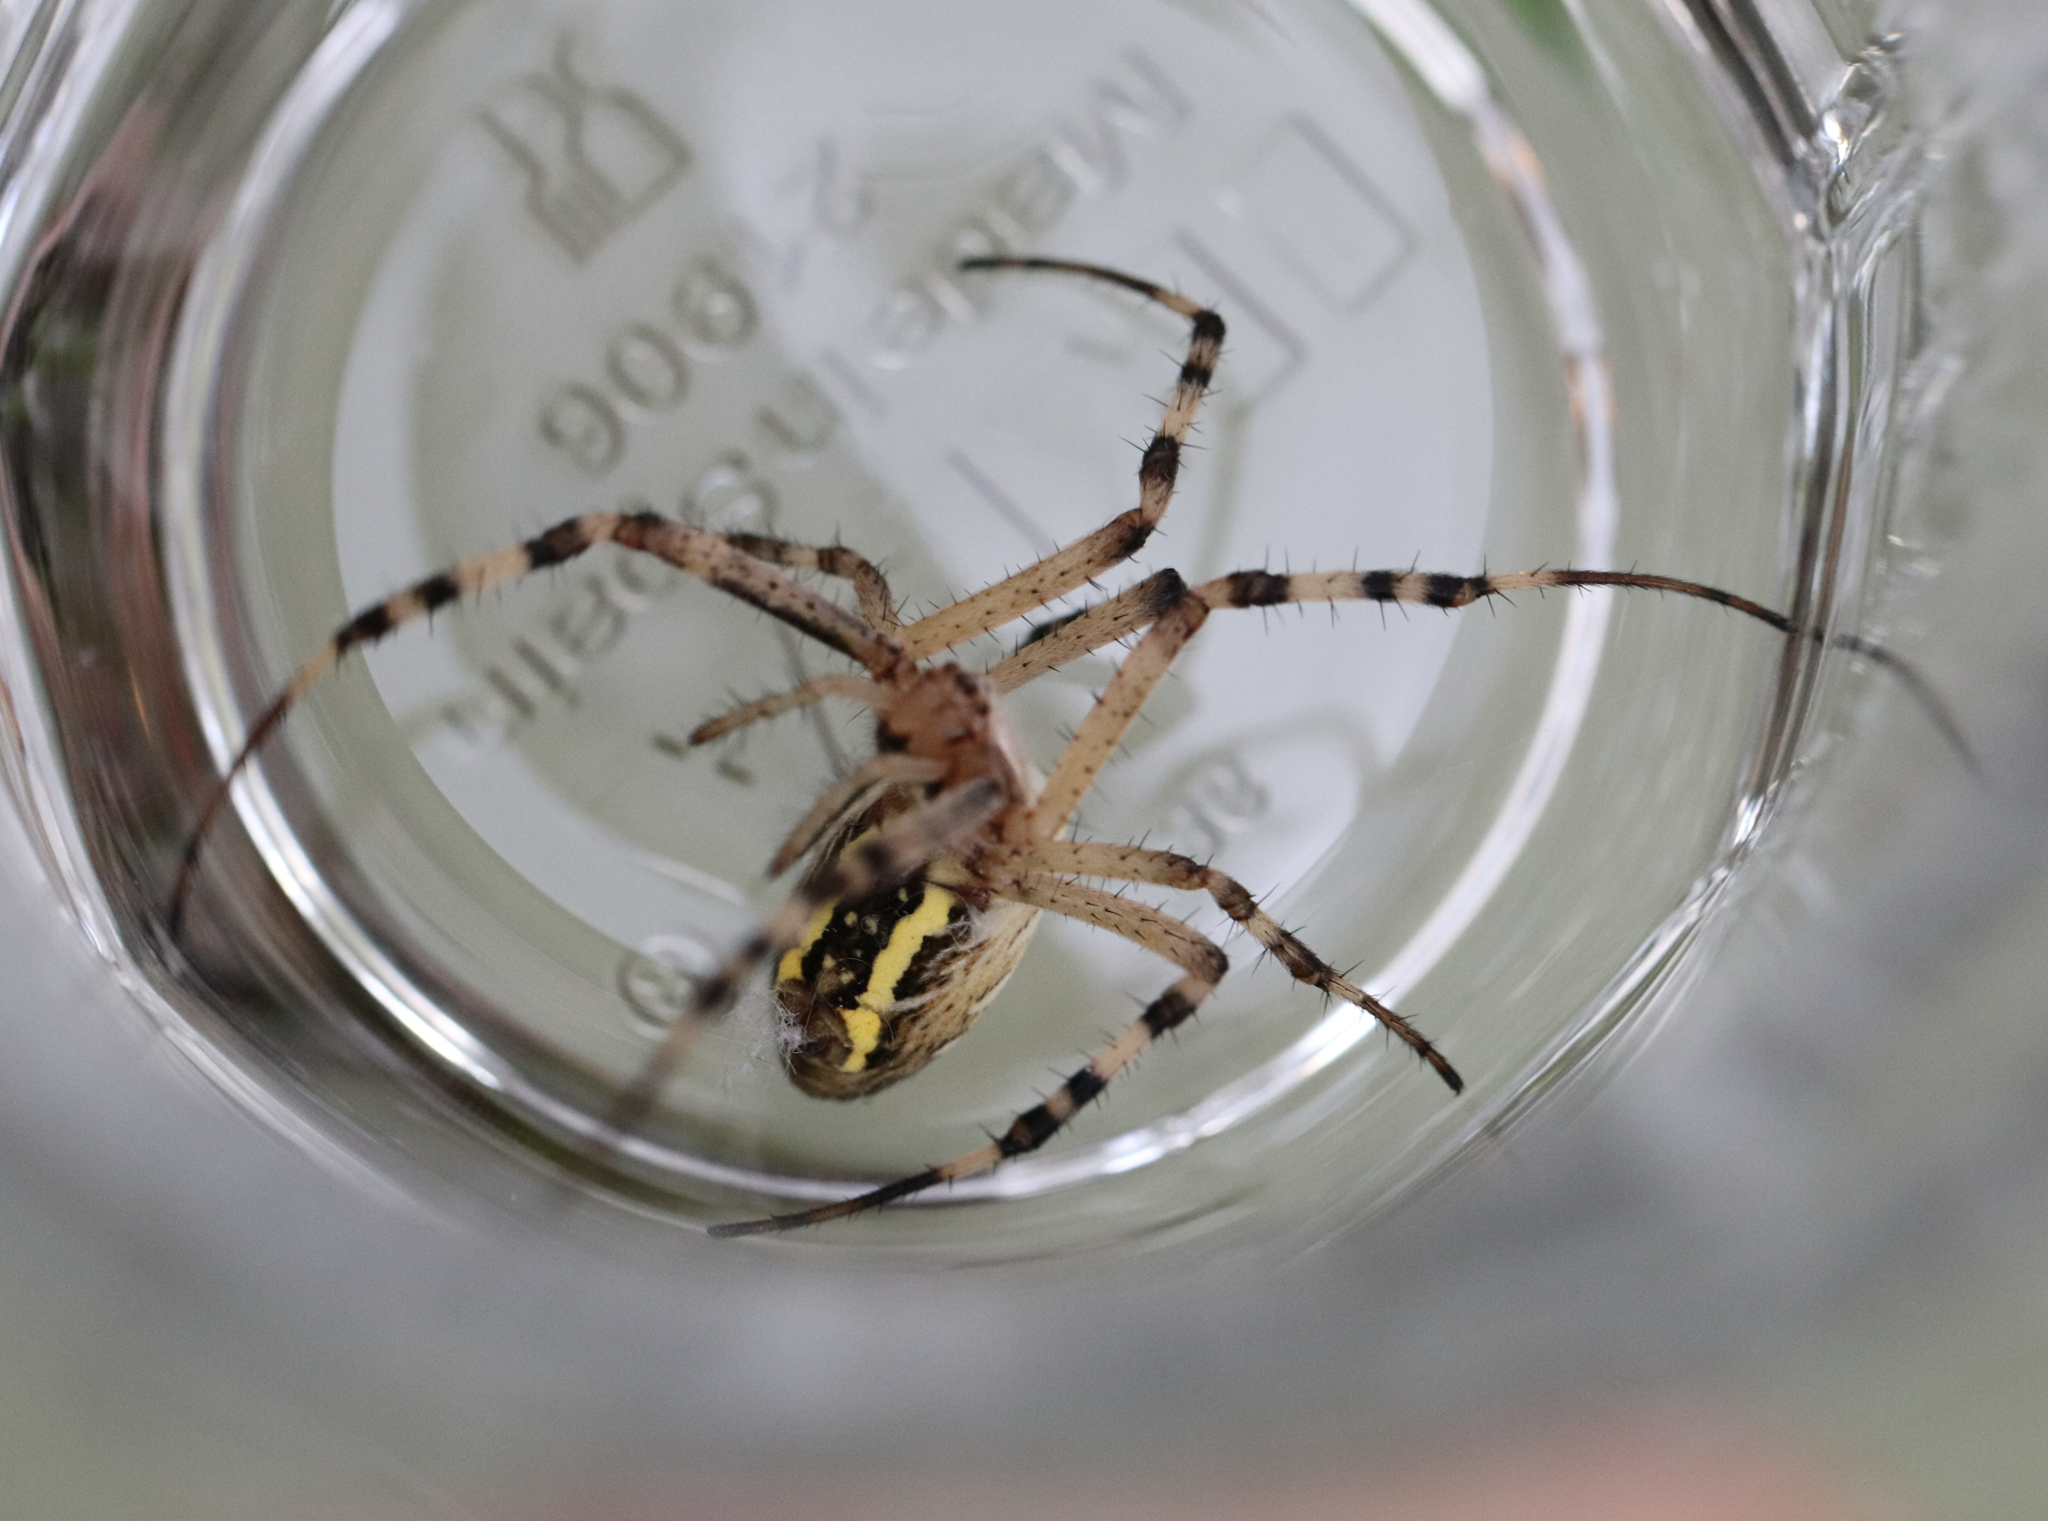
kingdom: Animalia
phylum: Arthropoda
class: Arachnida
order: Araneae
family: Araneidae
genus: Argiope
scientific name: Argiope bruennichi
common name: Wasp spider
